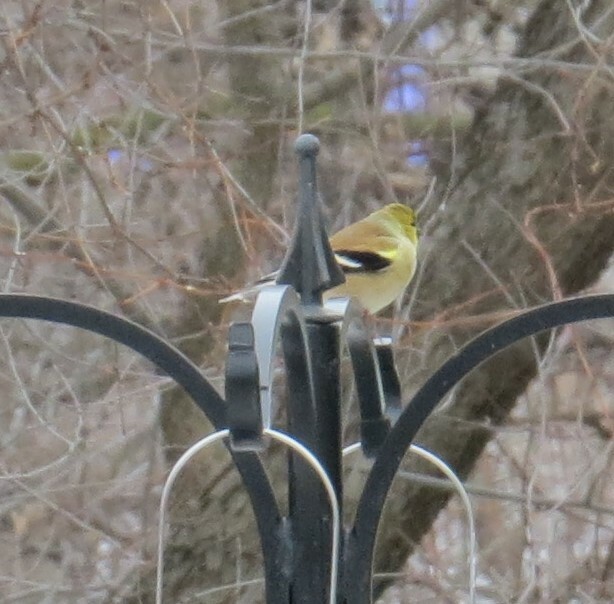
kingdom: Animalia
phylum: Chordata
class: Aves
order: Passeriformes
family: Fringillidae
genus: Spinus
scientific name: Spinus tristis
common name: American goldfinch
